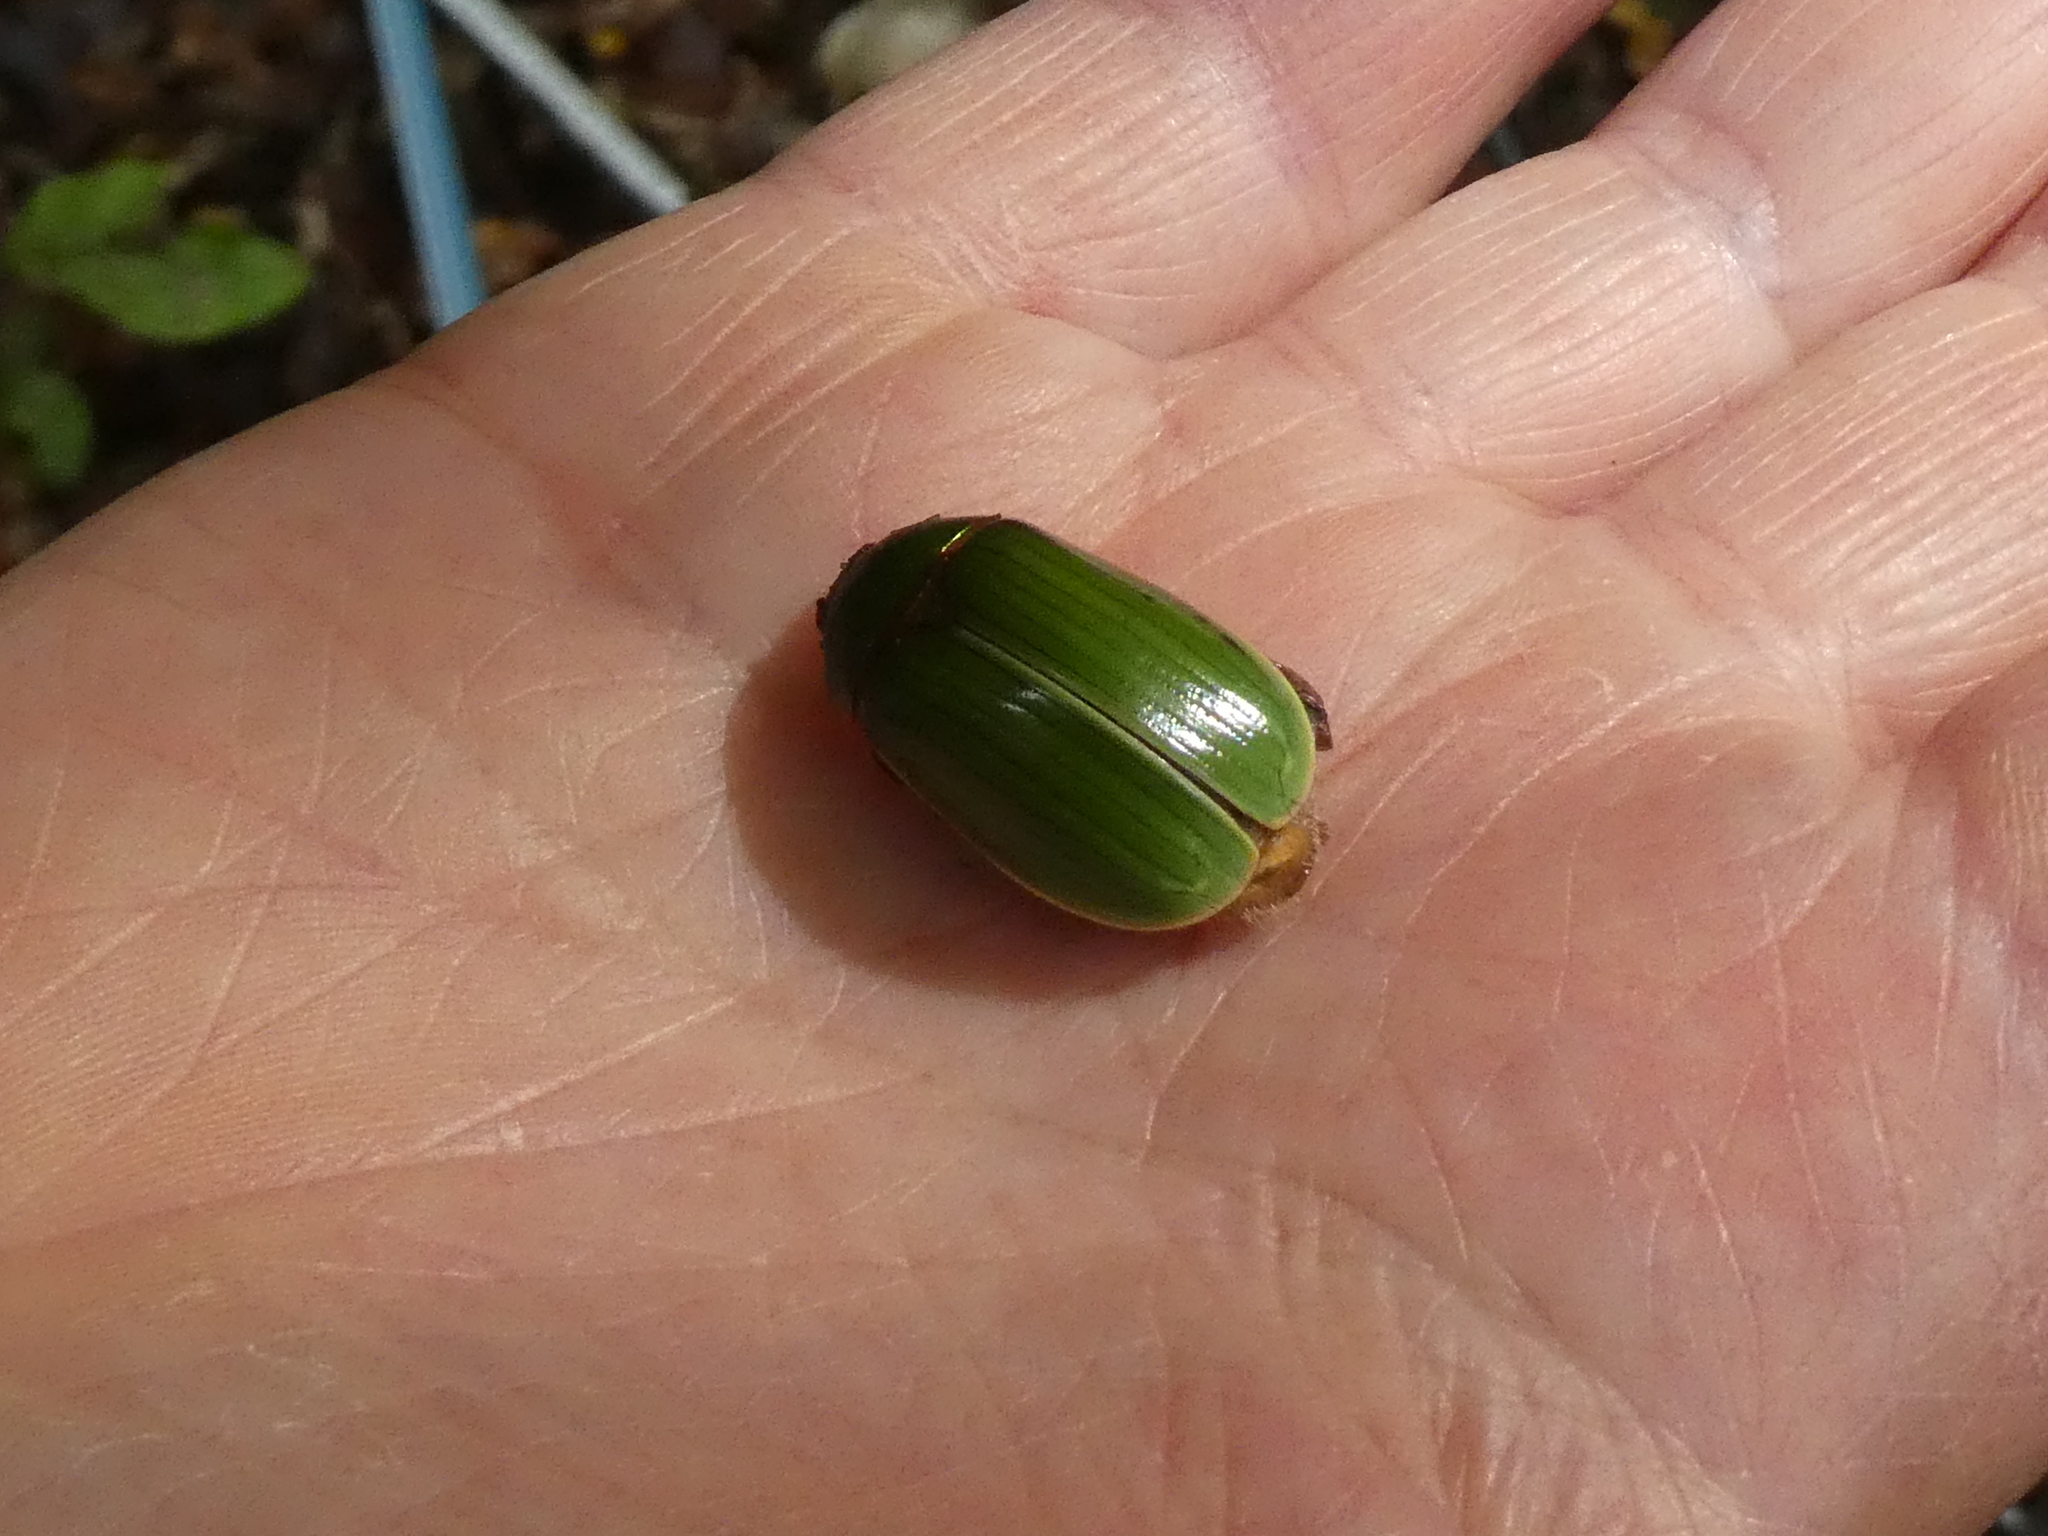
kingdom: Animalia
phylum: Arthropoda
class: Insecta
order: Coleoptera
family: Scarabaeidae
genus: Stethaspis
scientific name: Stethaspis longicornis
